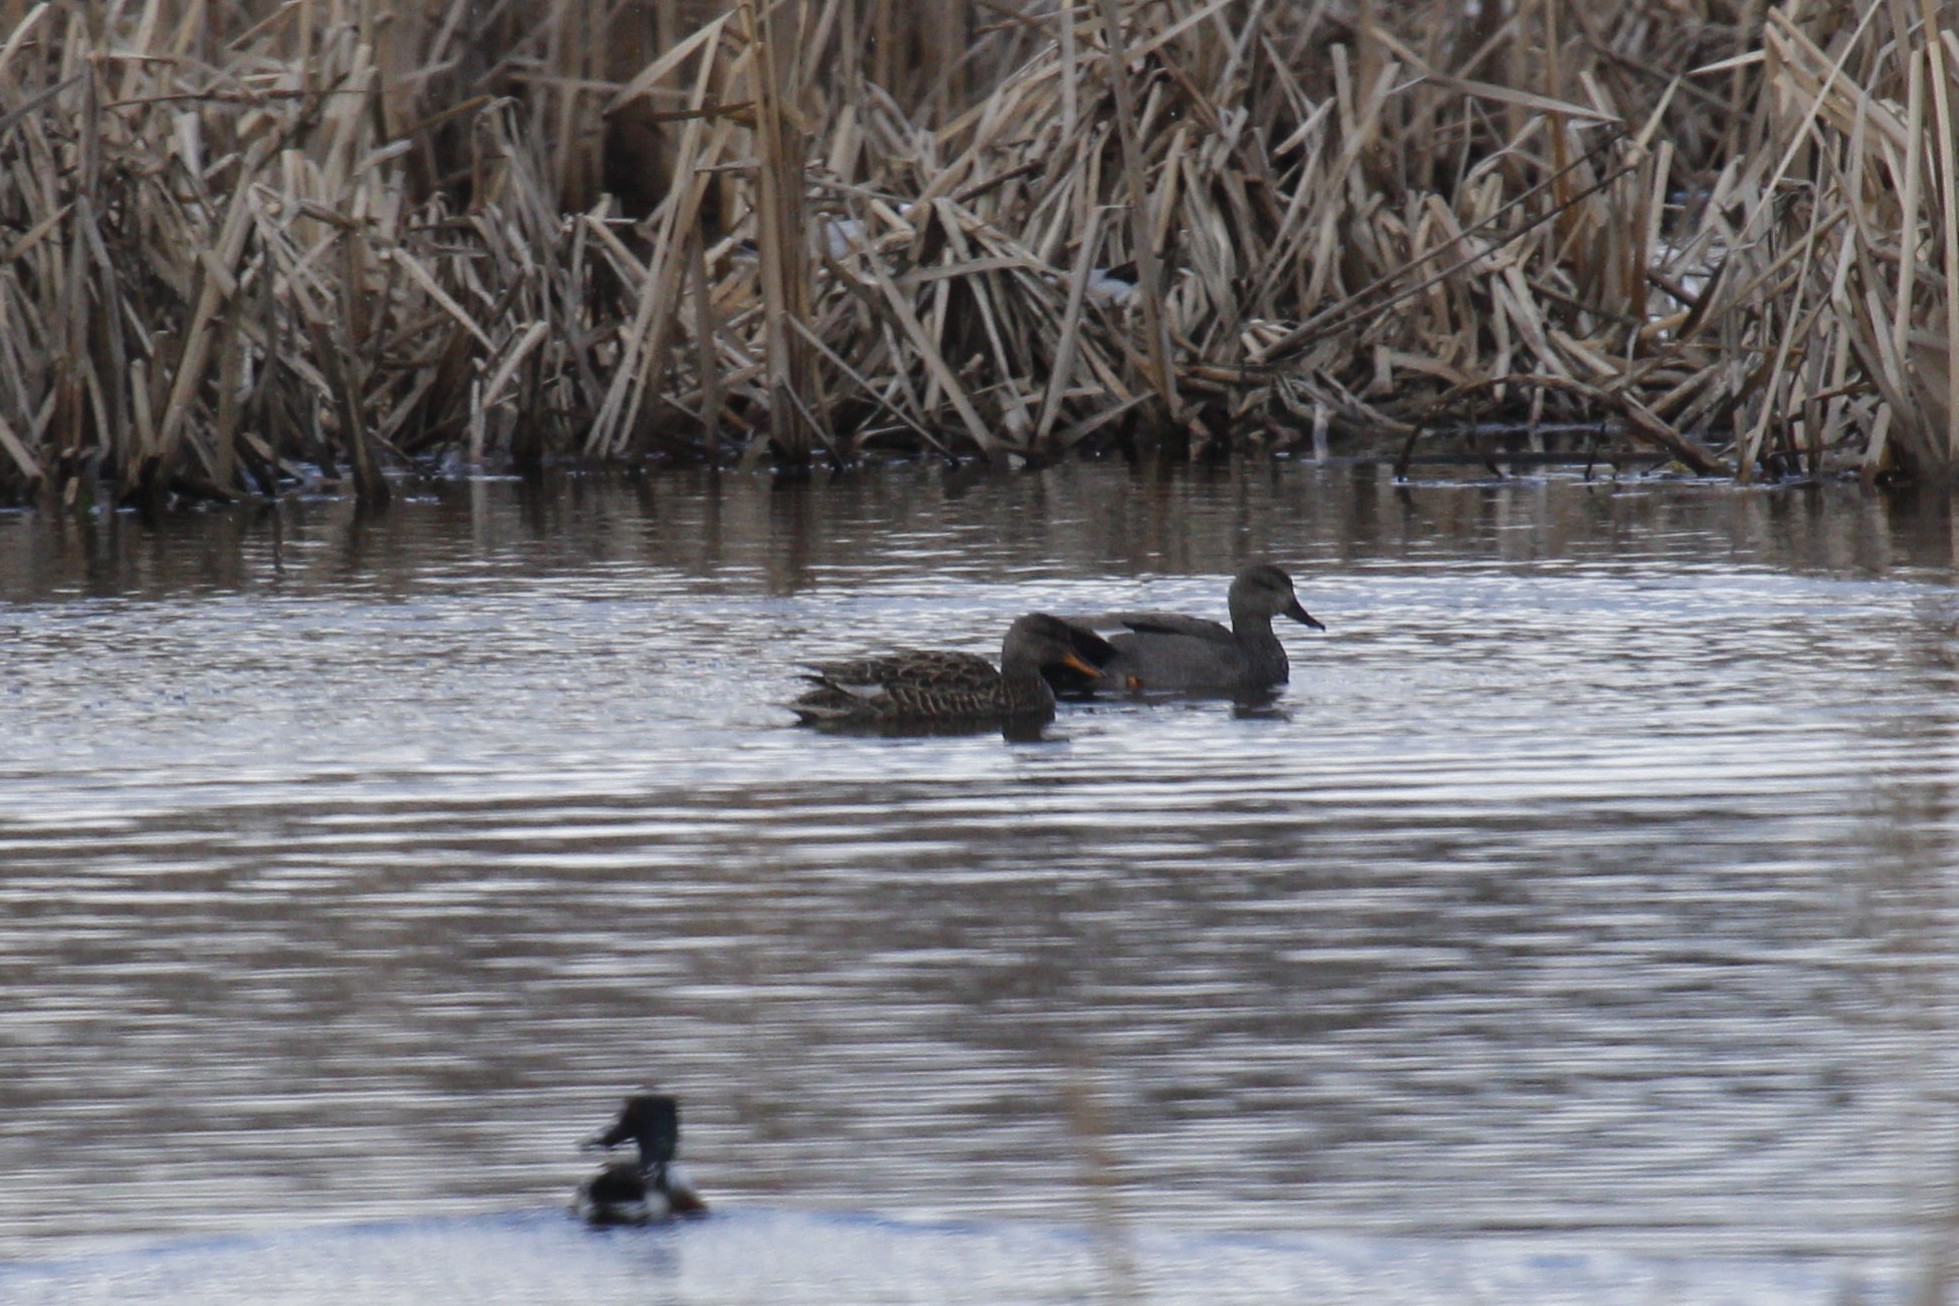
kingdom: Animalia
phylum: Chordata
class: Aves
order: Anseriformes
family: Anatidae
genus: Mareca
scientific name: Mareca strepera
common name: Gadwall
